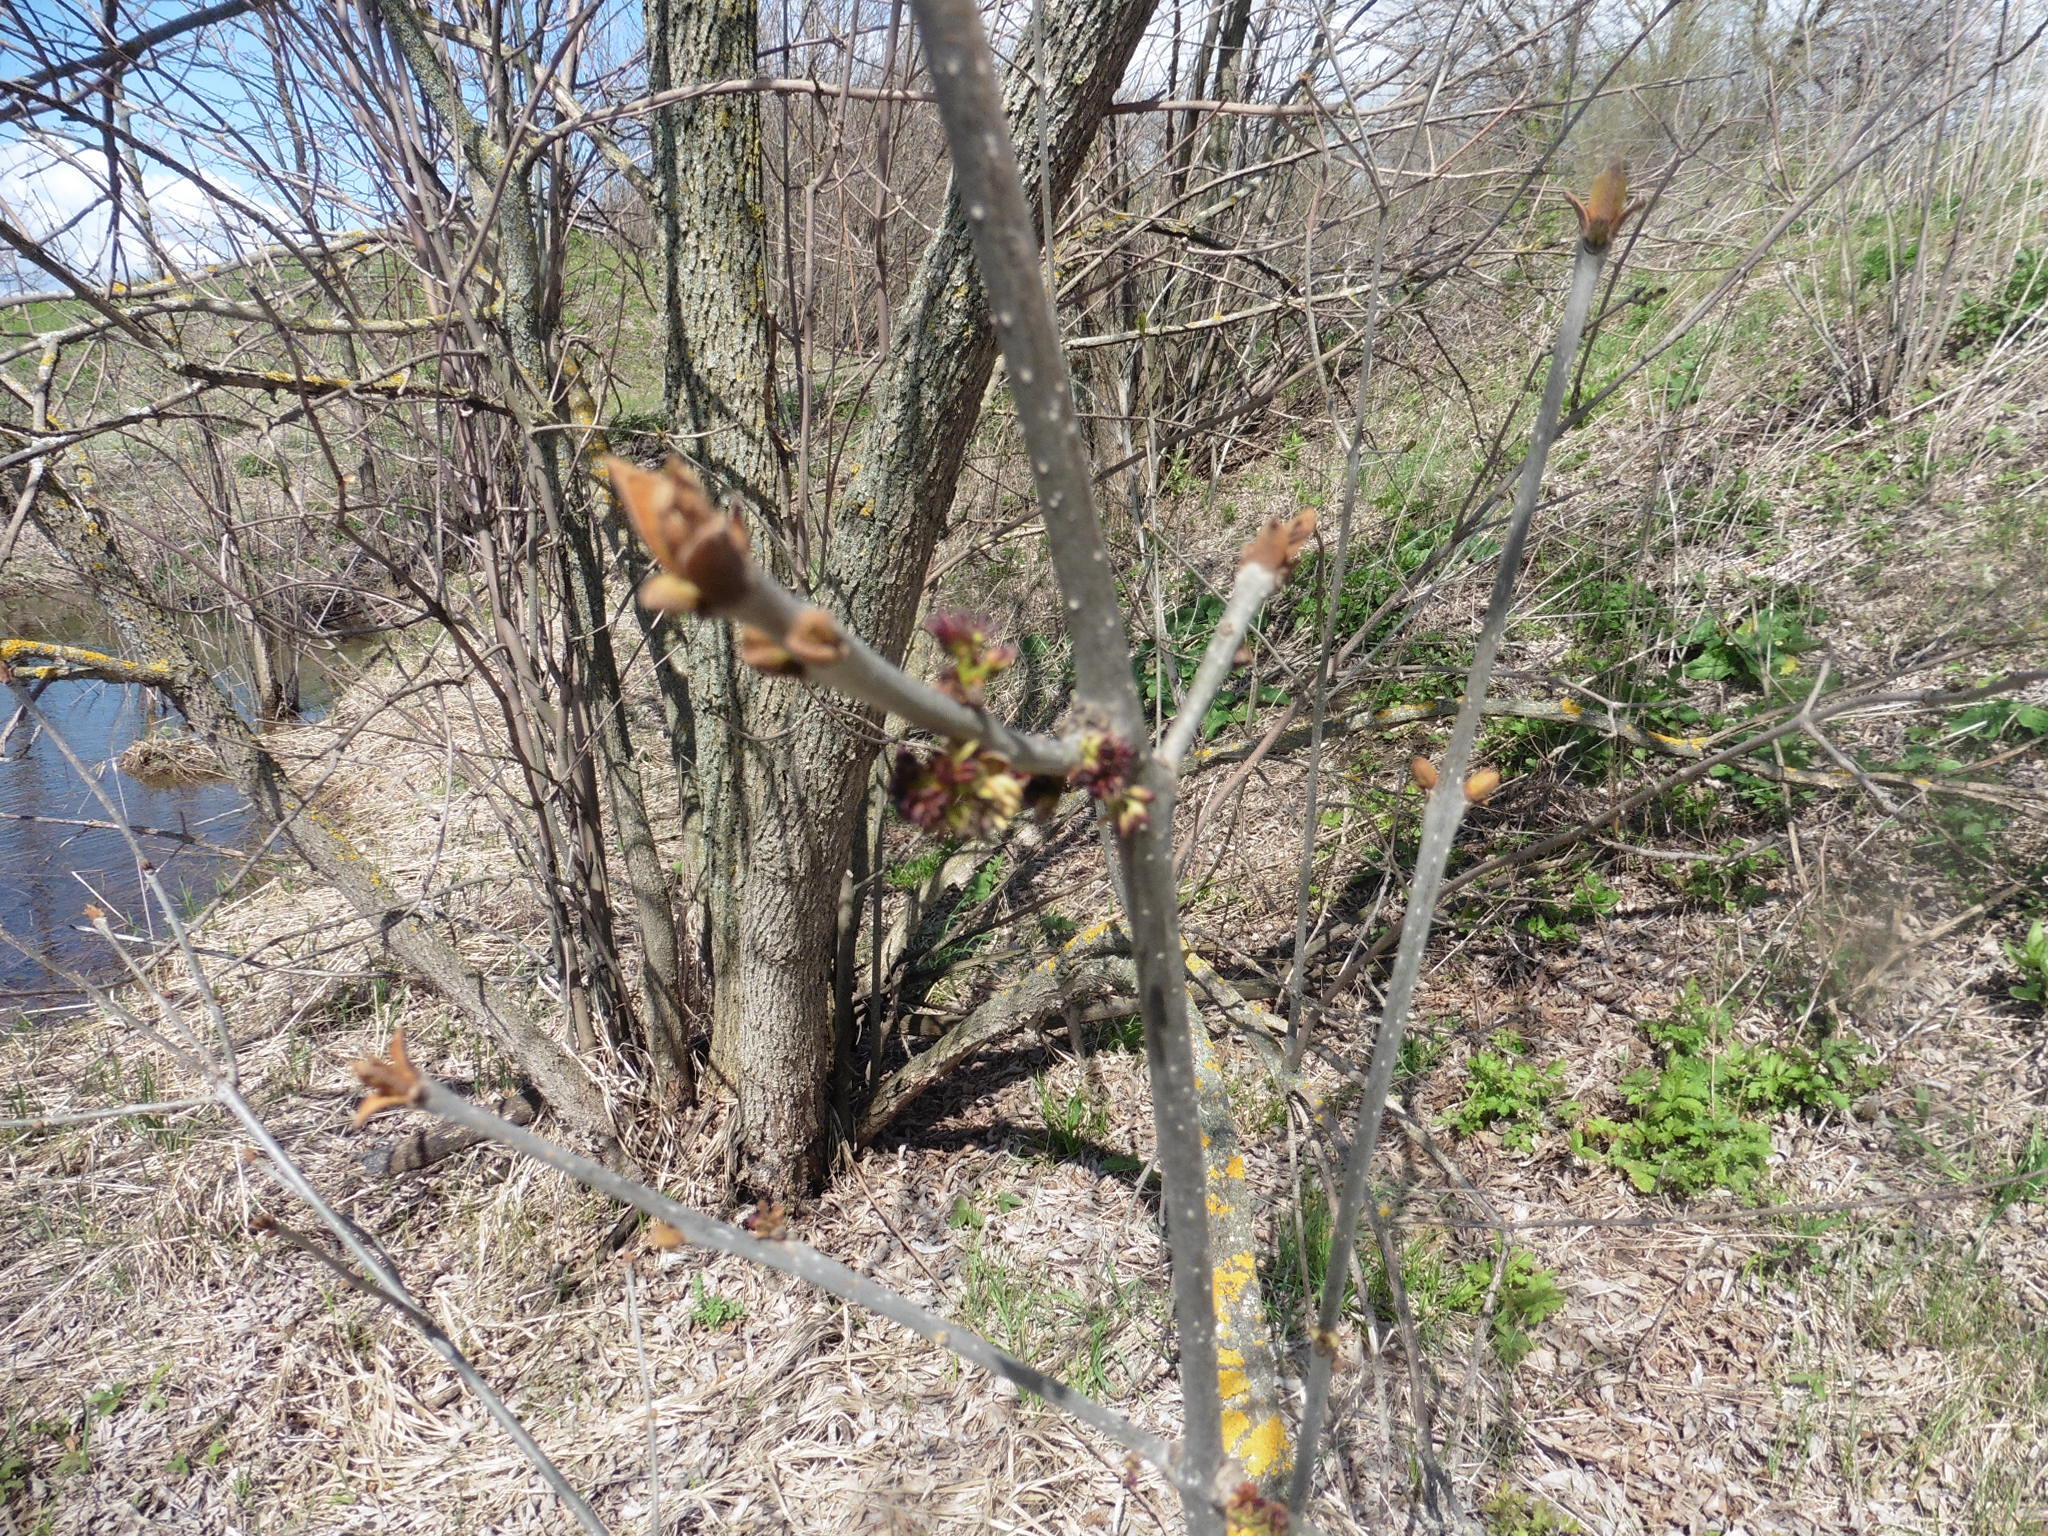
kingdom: Plantae
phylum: Tracheophyta
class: Magnoliopsida
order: Lamiales
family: Oleaceae
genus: Fraxinus
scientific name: Fraxinus pennsylvanica
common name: Green ash
